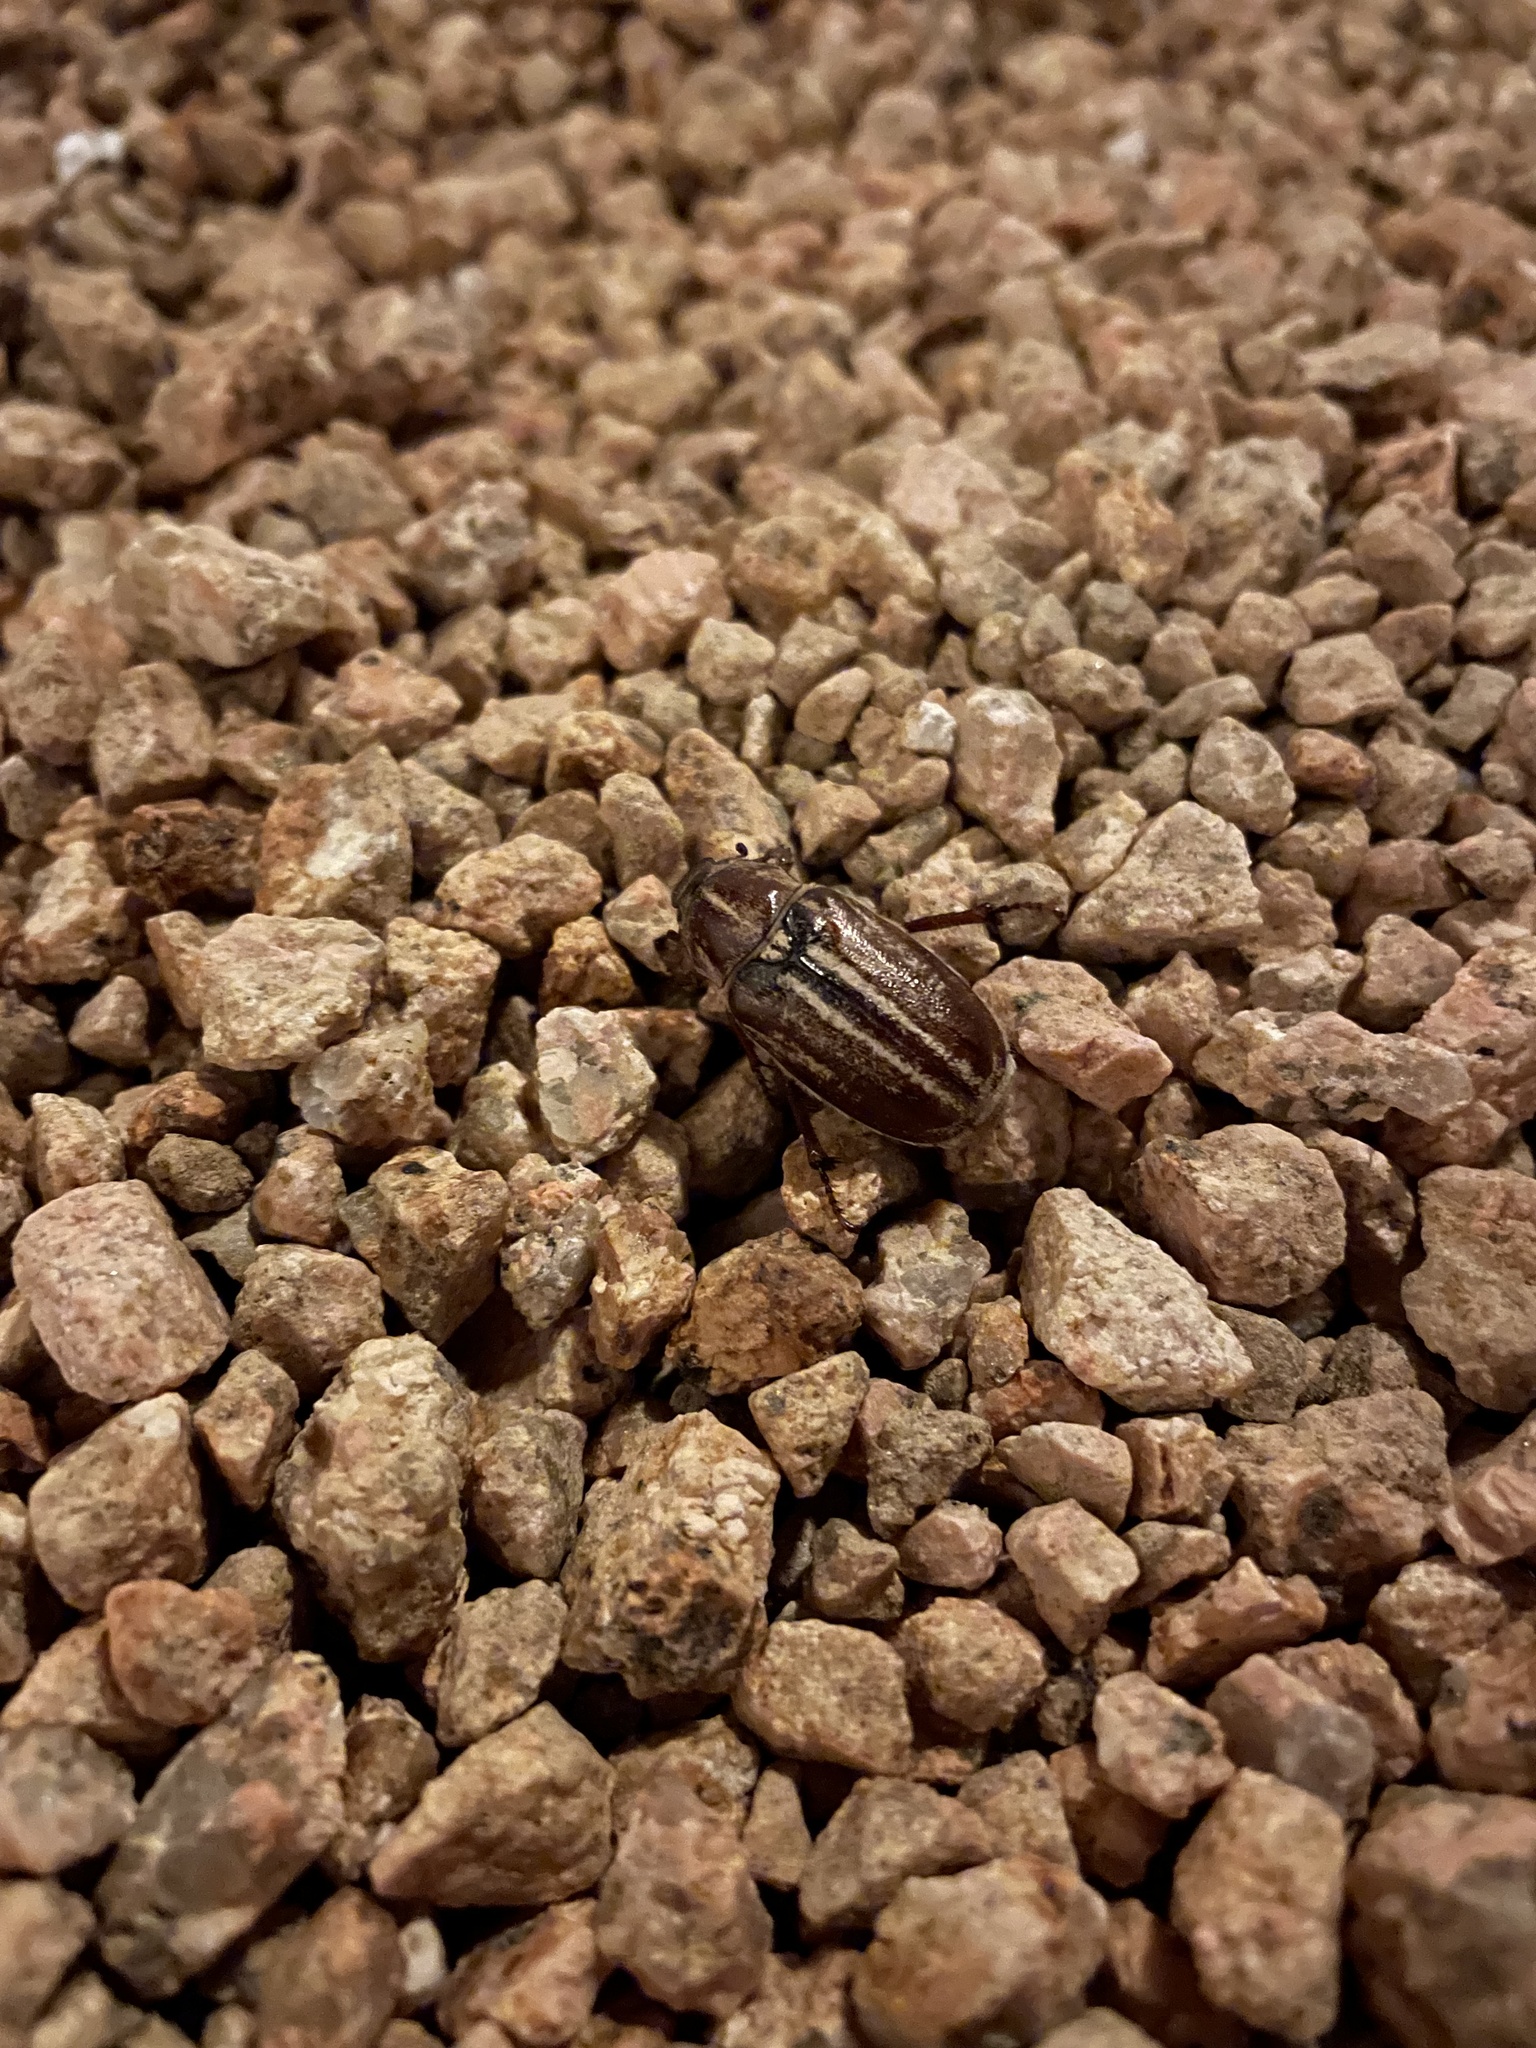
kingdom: Animalia
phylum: Arthropoda
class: Insecta
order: Coleoptera
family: Scarabaeidae
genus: Anoxia
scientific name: Anoxia australis
